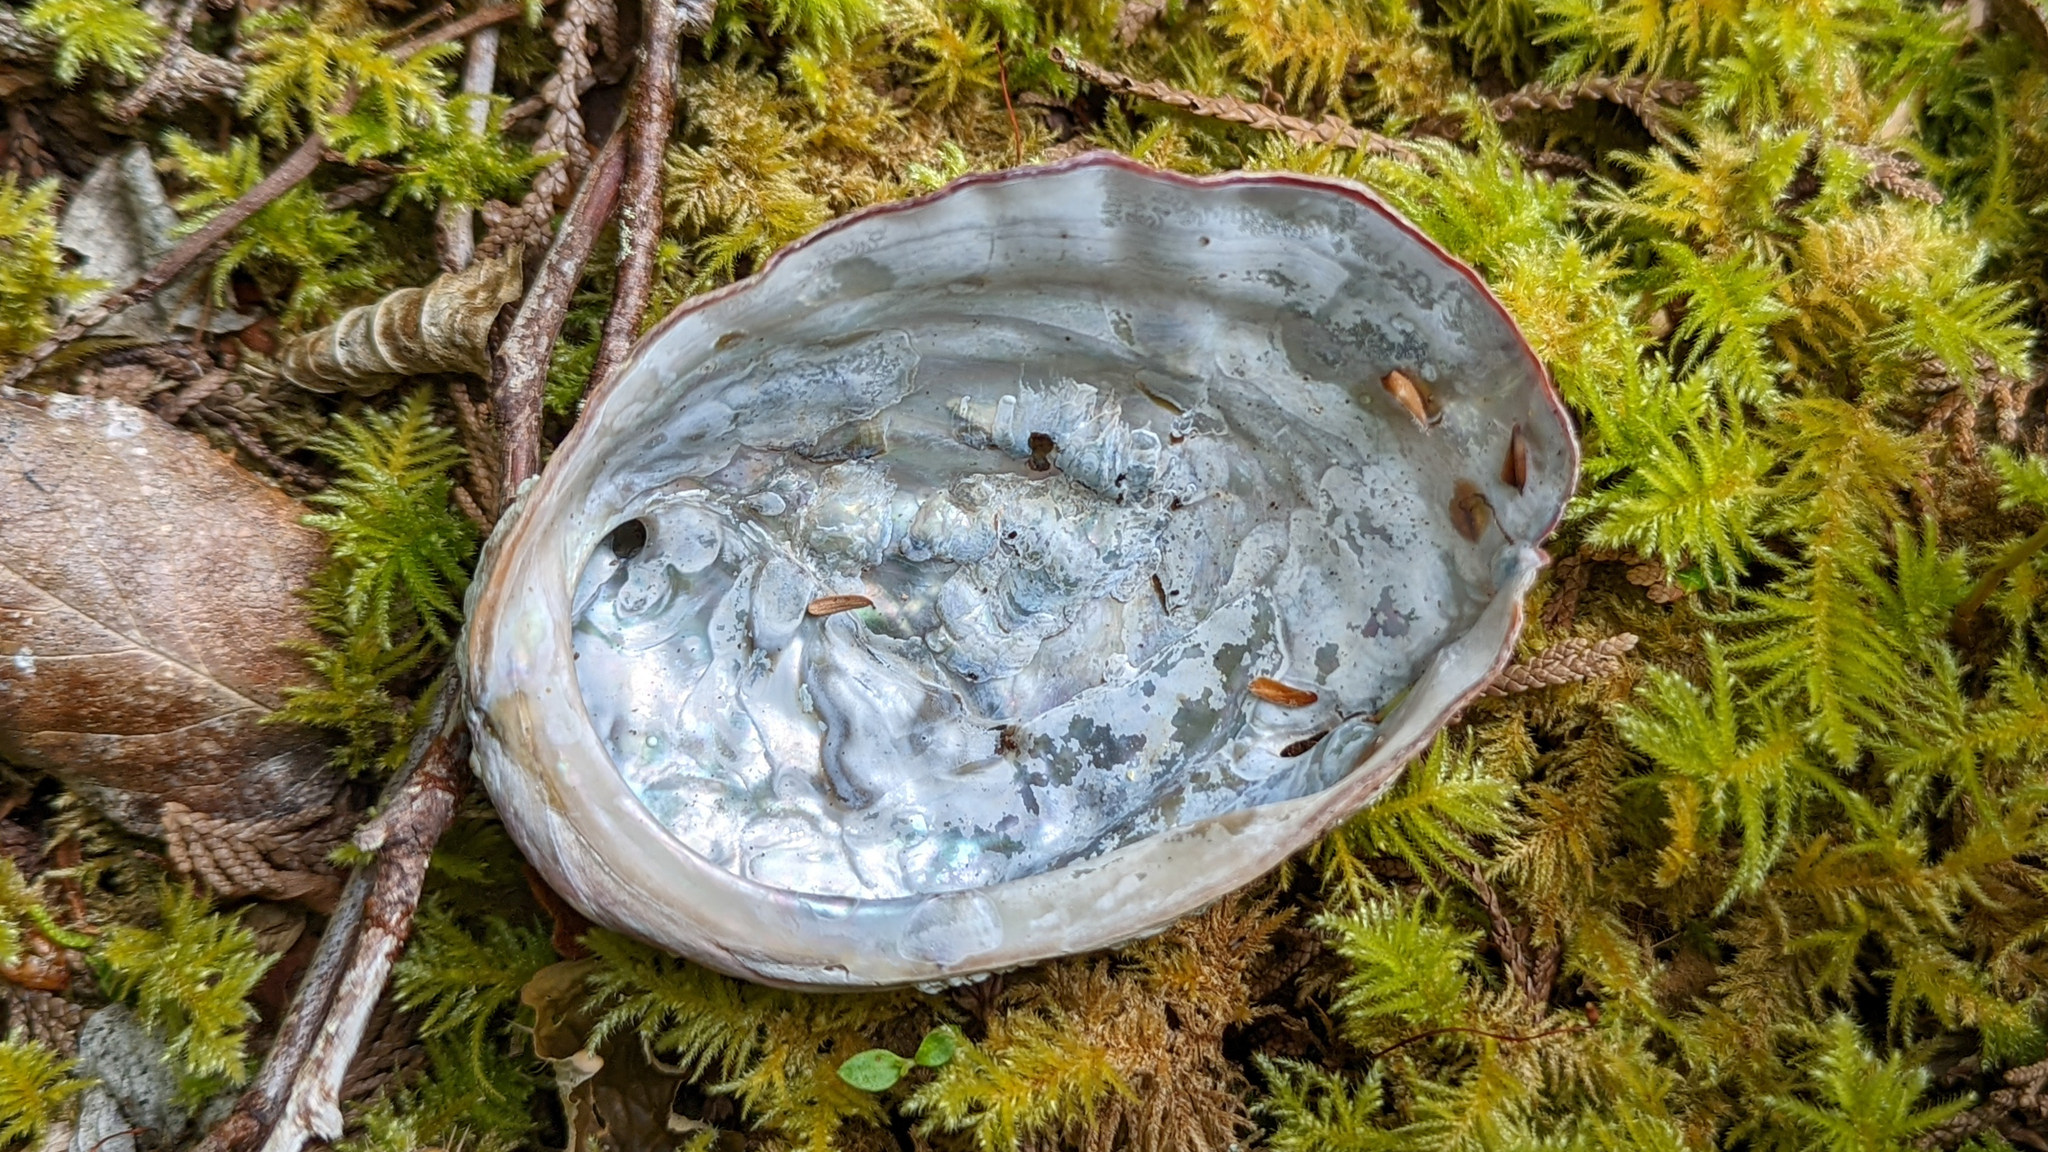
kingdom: Animalia
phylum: Mollusca
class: Gastropoda
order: Lepetellida
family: Haliotidae
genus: Haliotis
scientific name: Haliotis kamtschatkana
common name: Pinto abalone
